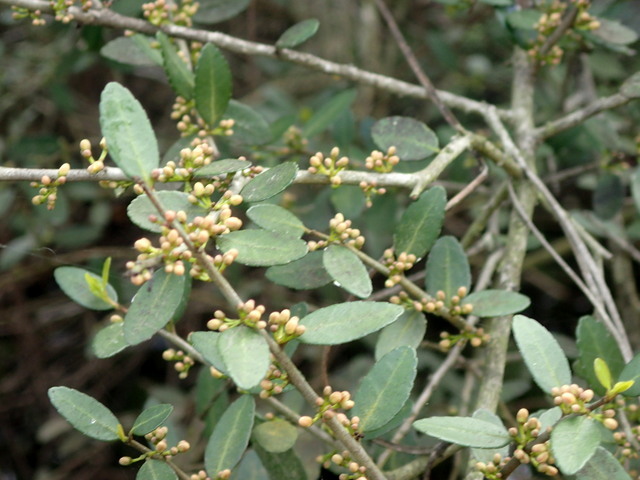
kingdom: Plantae
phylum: Tracheophyta
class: Magnoliopsida
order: Aquifoliales
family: Aquifoliaceae
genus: Ilex
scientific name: Ilex vomitoria
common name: Yaupon holly
